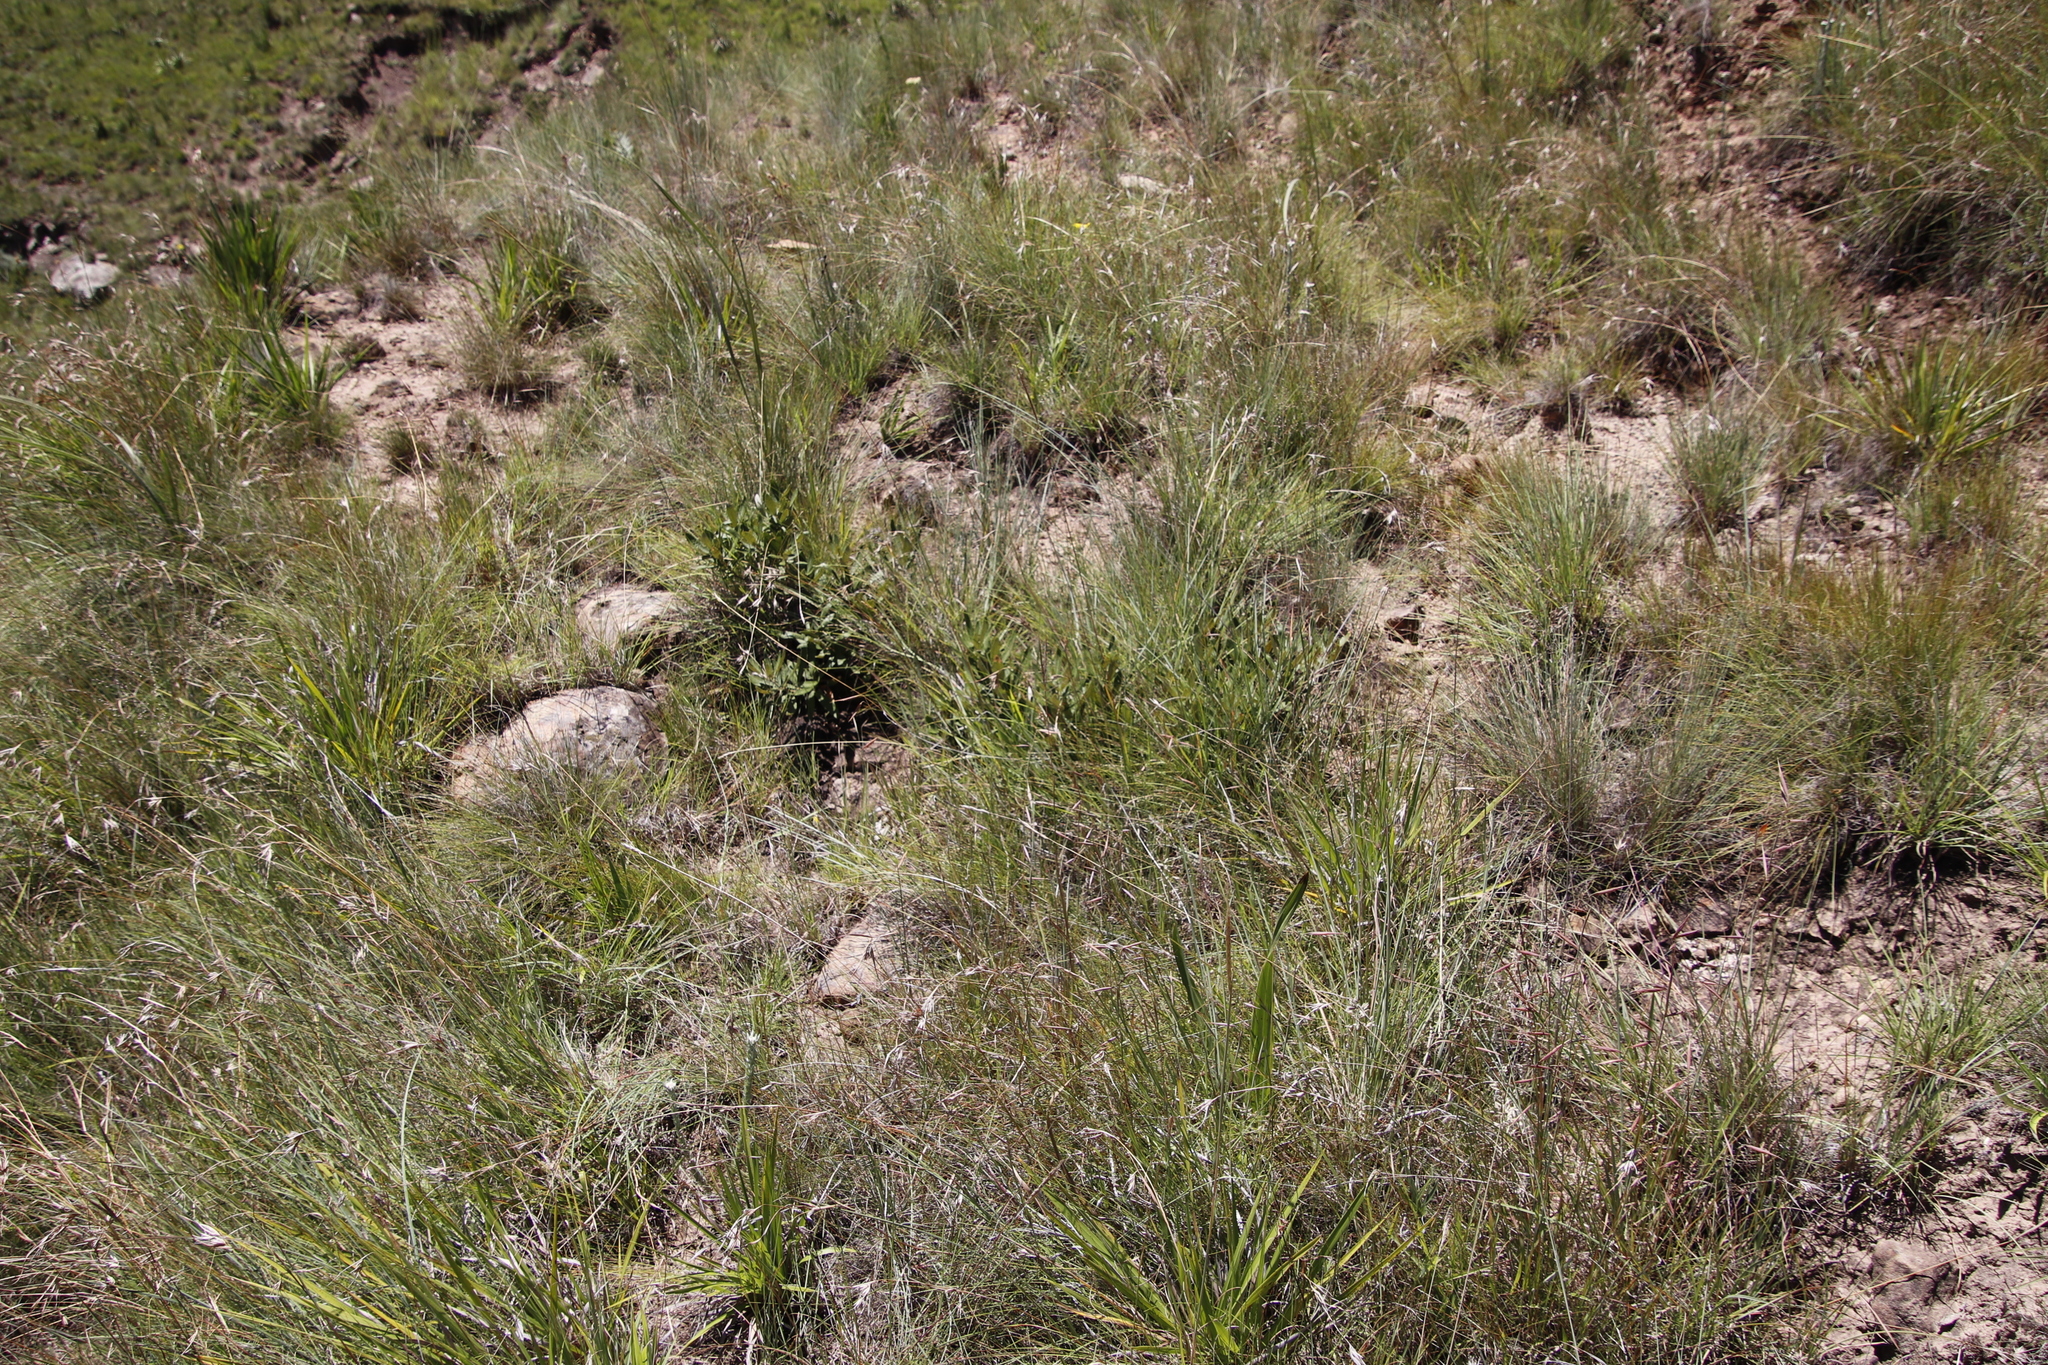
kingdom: Plantae
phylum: Tracheophyta
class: Magnoliopsida
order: Sapindales
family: Anacardiaceae
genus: Searsia
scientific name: Searsia discolor
